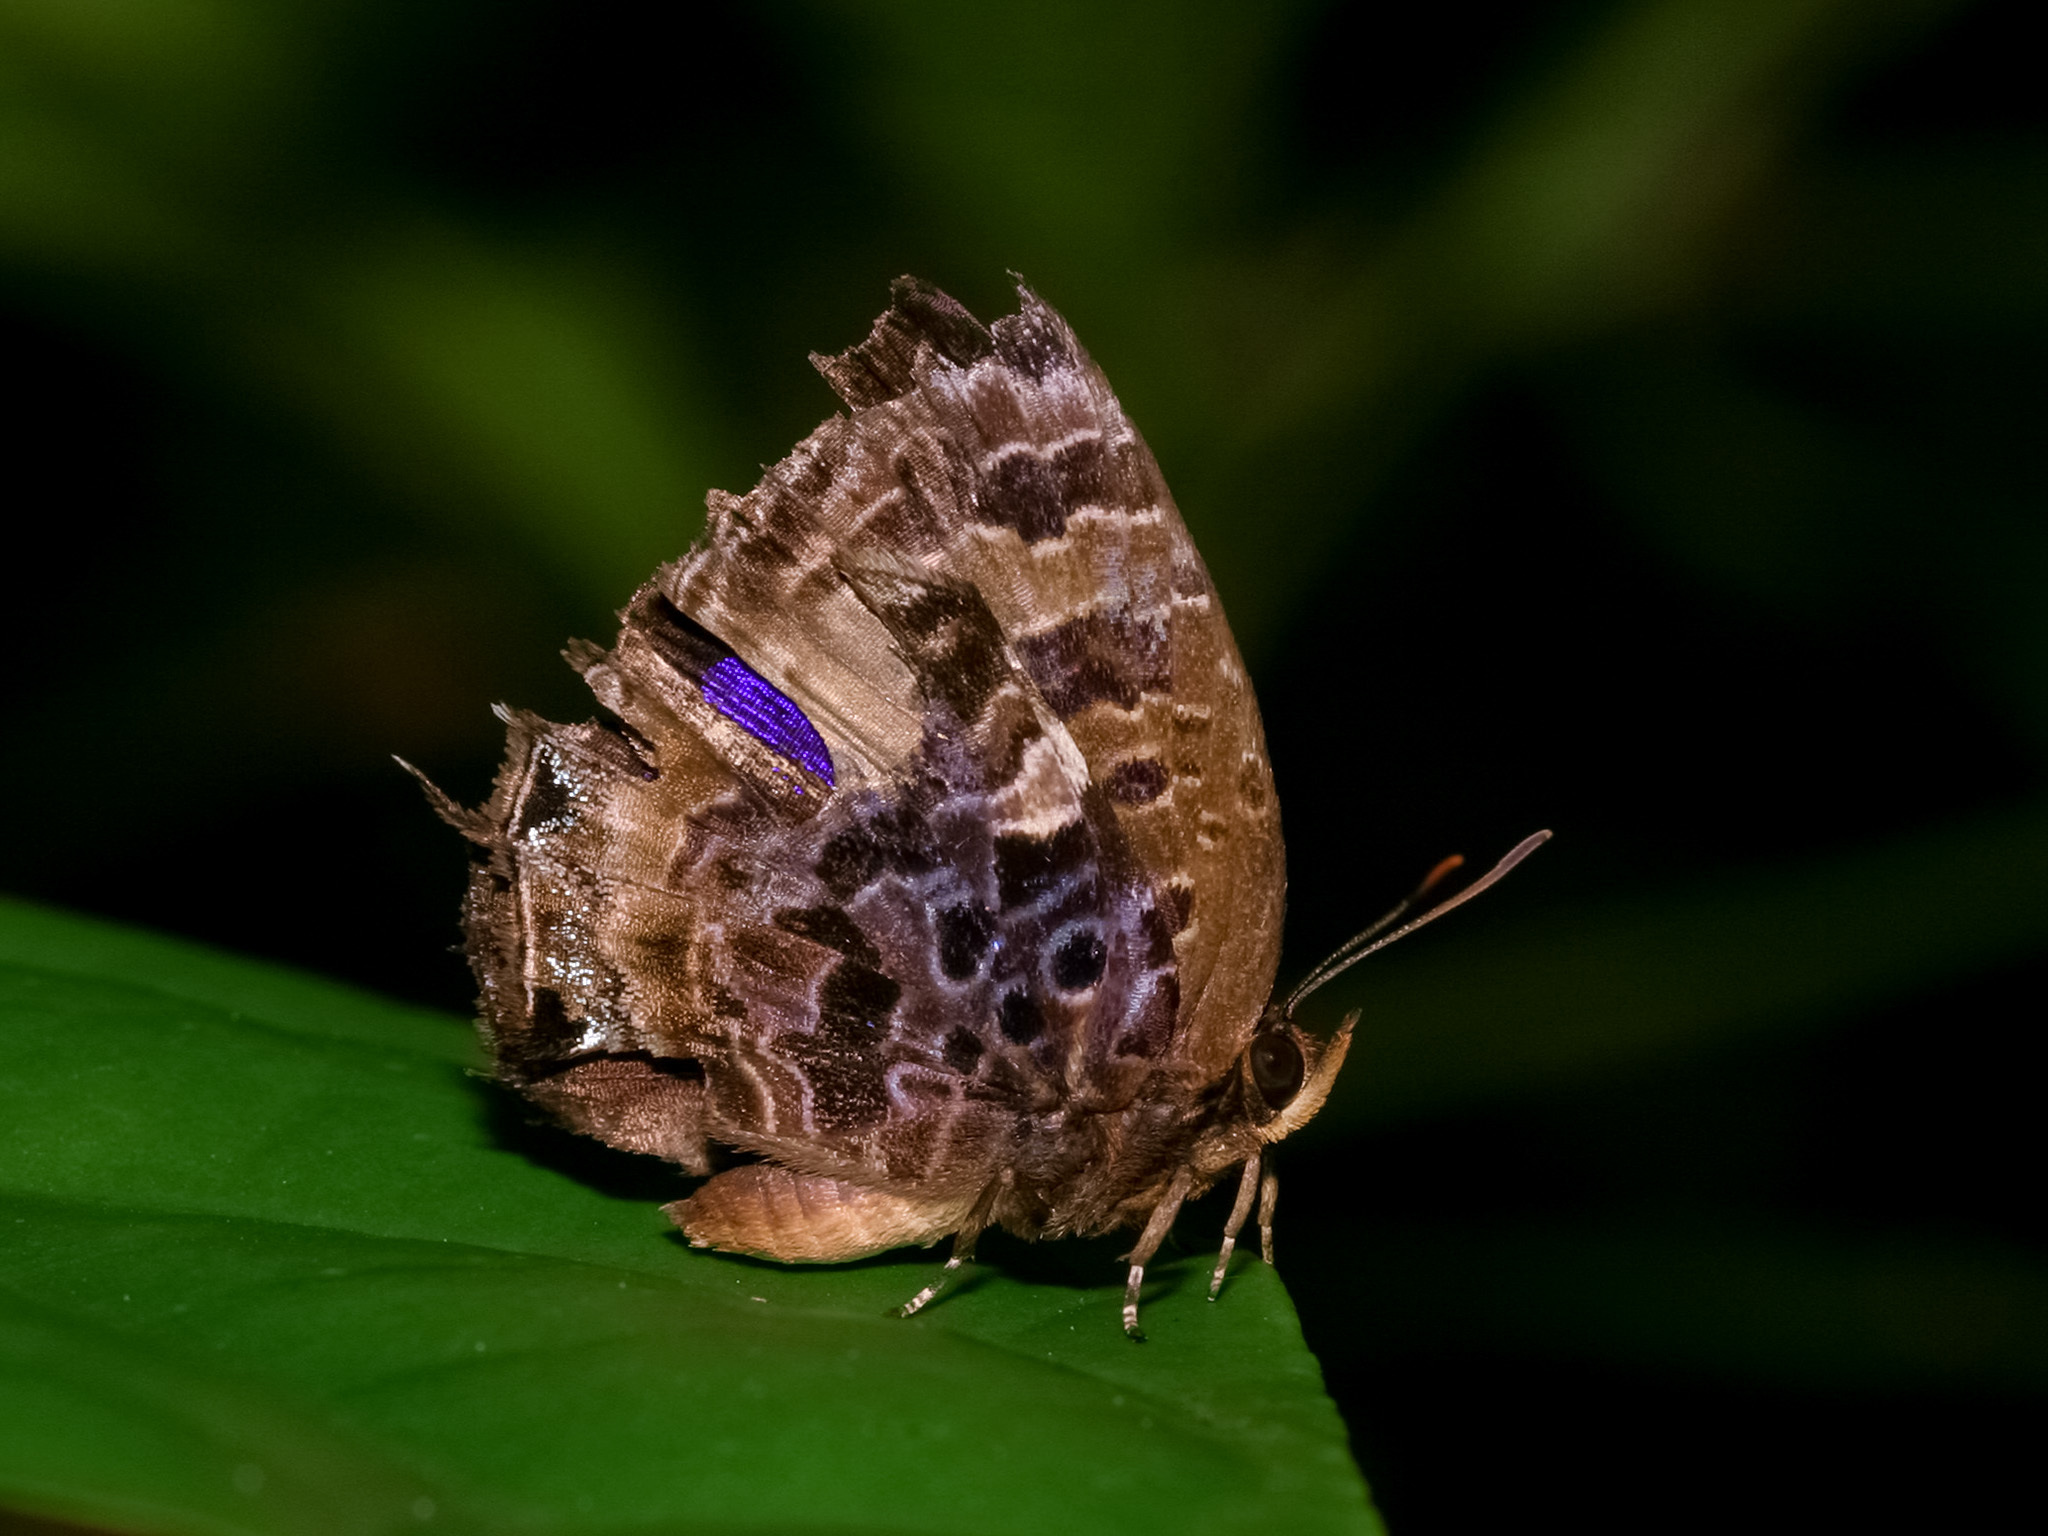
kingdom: Animalia
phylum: Arthropoda
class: Insecta
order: Lepidoptera
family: Lycaenidae
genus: Arhopala
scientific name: Arhopala abseus
